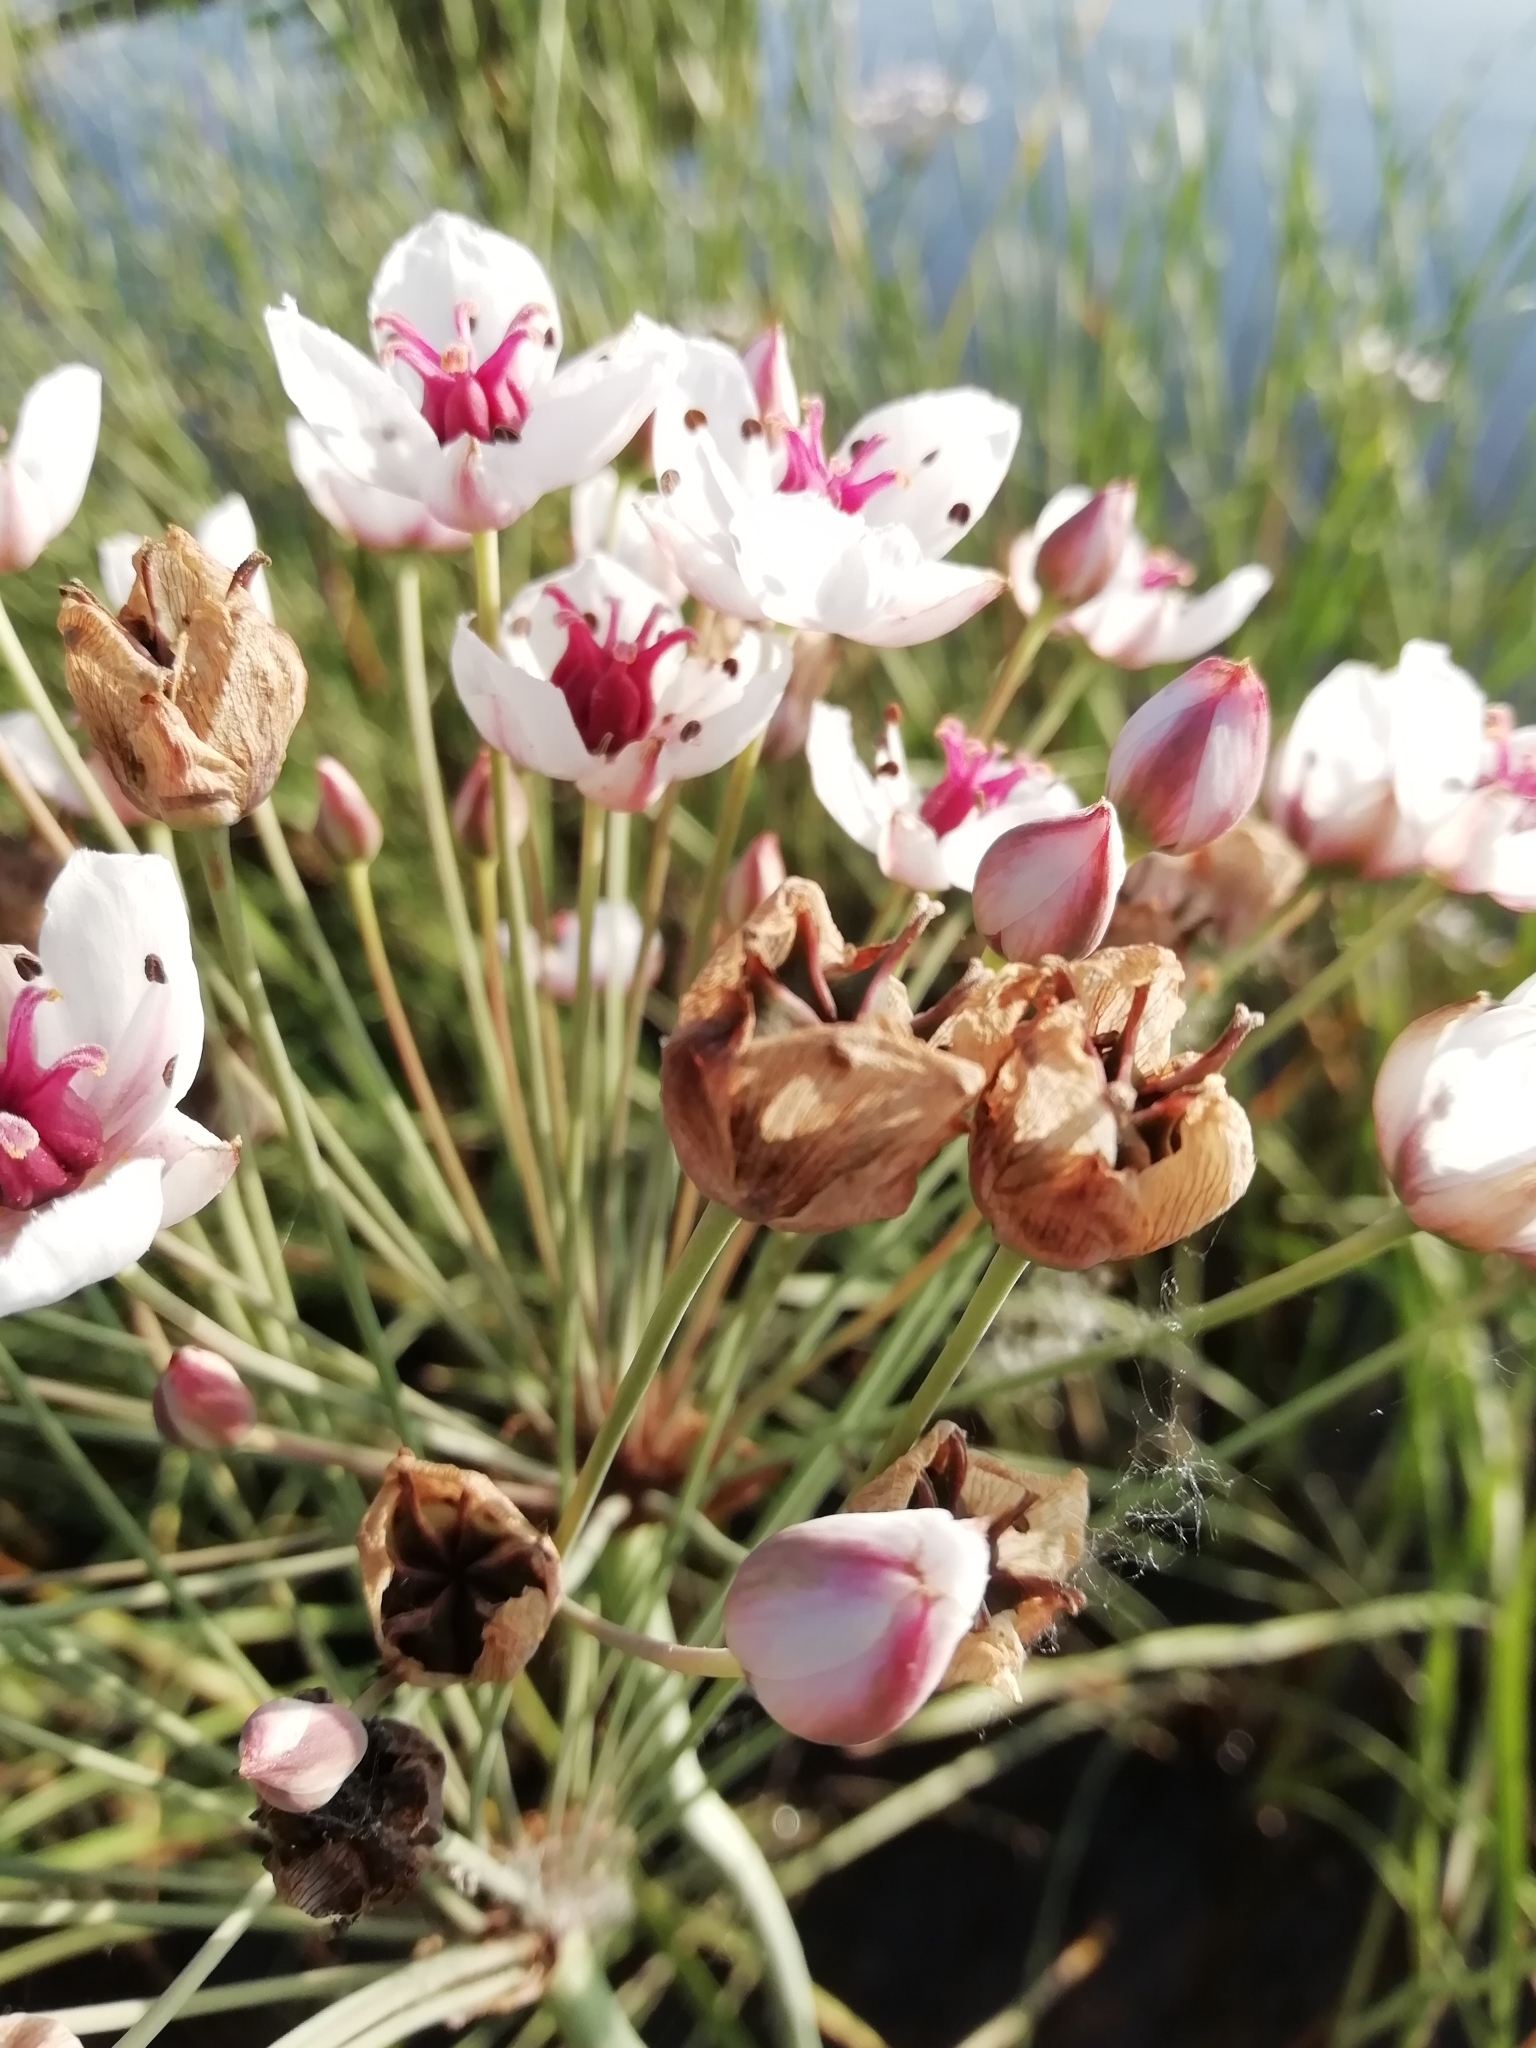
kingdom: Plantae
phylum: Tracheophyta
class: Liliopsida
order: Alismatales
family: Butomaceae
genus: Butomus
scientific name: Butomus umbellatus
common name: Flowering-rush
